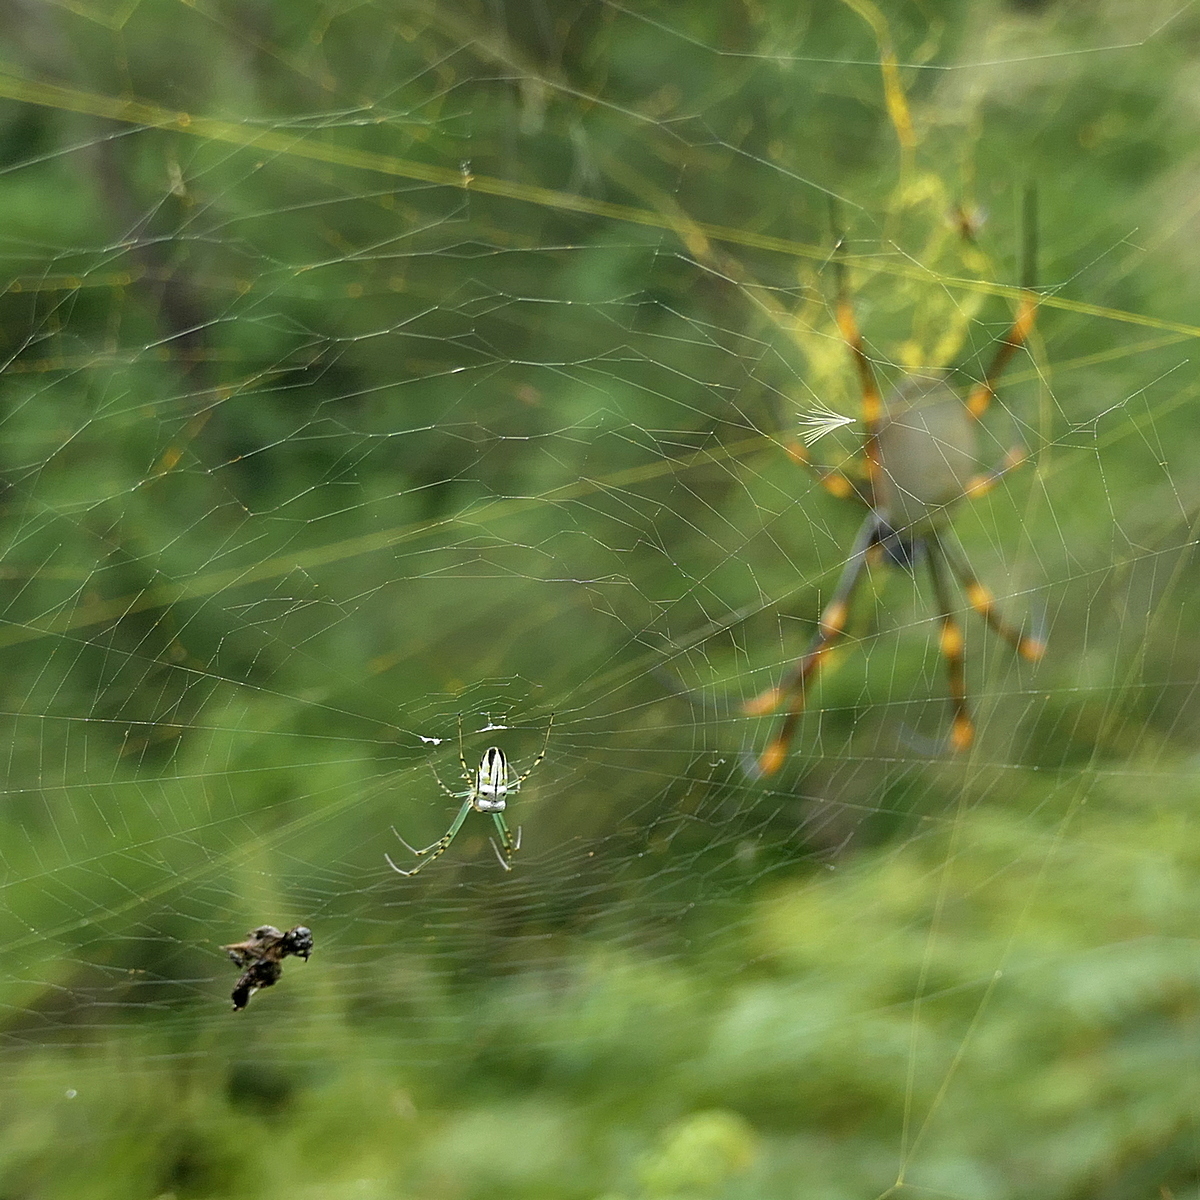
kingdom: Animalia
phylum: Arthropoda
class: Arachnida
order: Araneae
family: Tetragnathidae
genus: Leucauge
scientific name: Leucauge dromedaria
